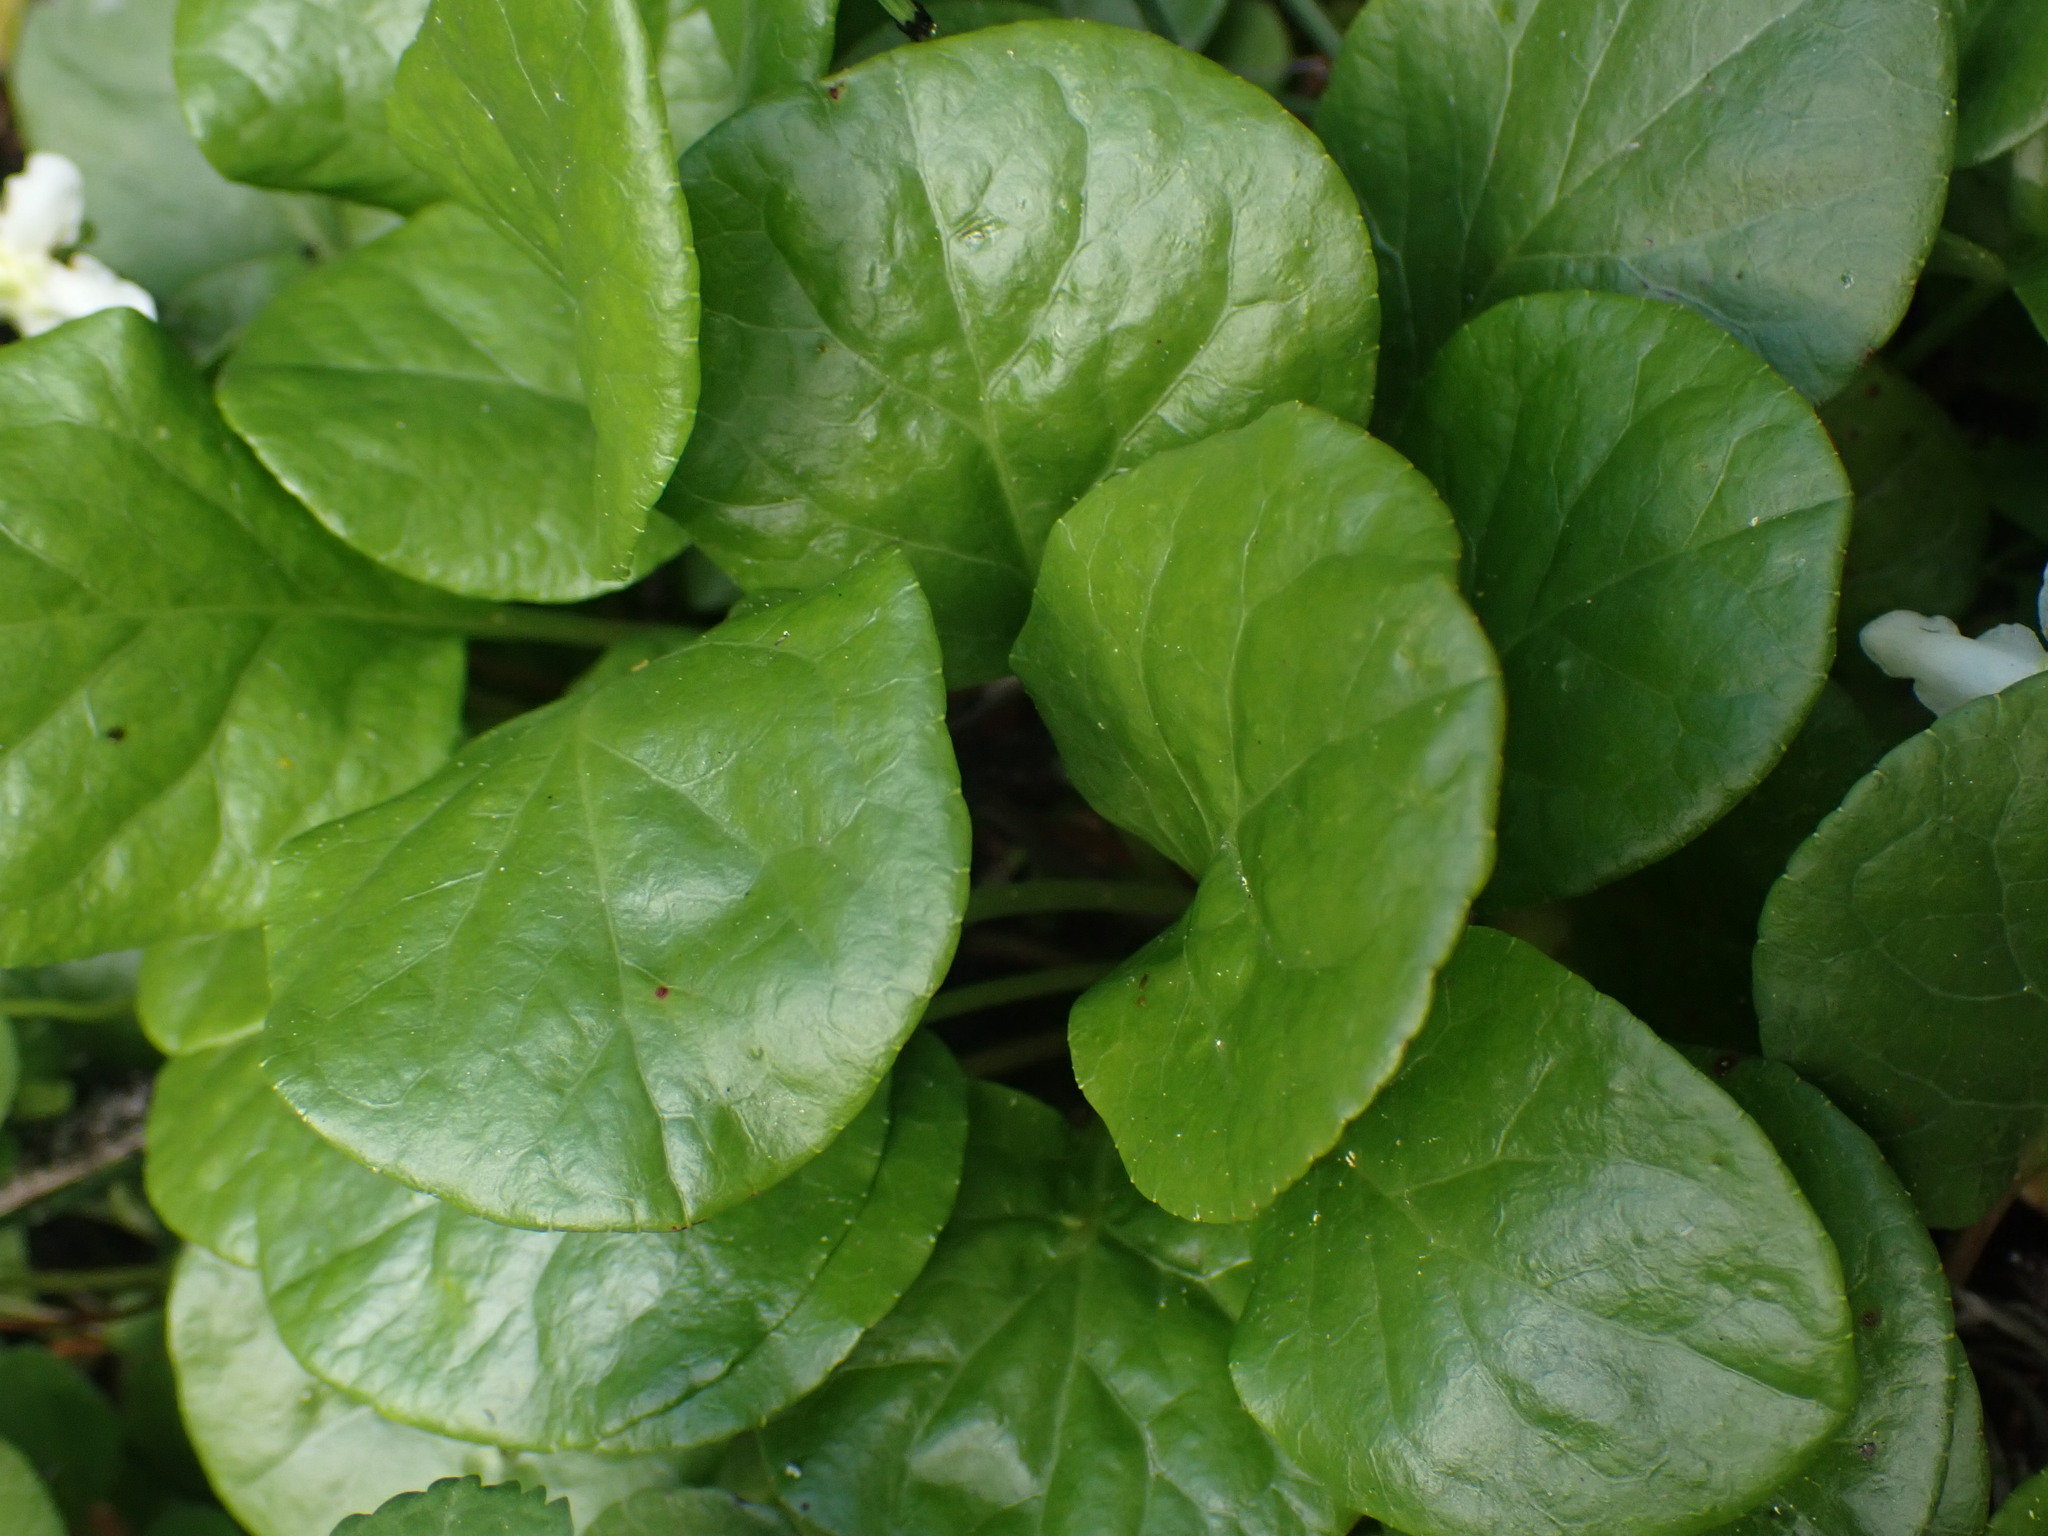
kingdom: Plantae
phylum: Tracheophyta
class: Magnoliopsida
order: Ericales
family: Ericaceae
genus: Pyrola
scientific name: Pyrola asarifolia
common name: Bog wintergreen
